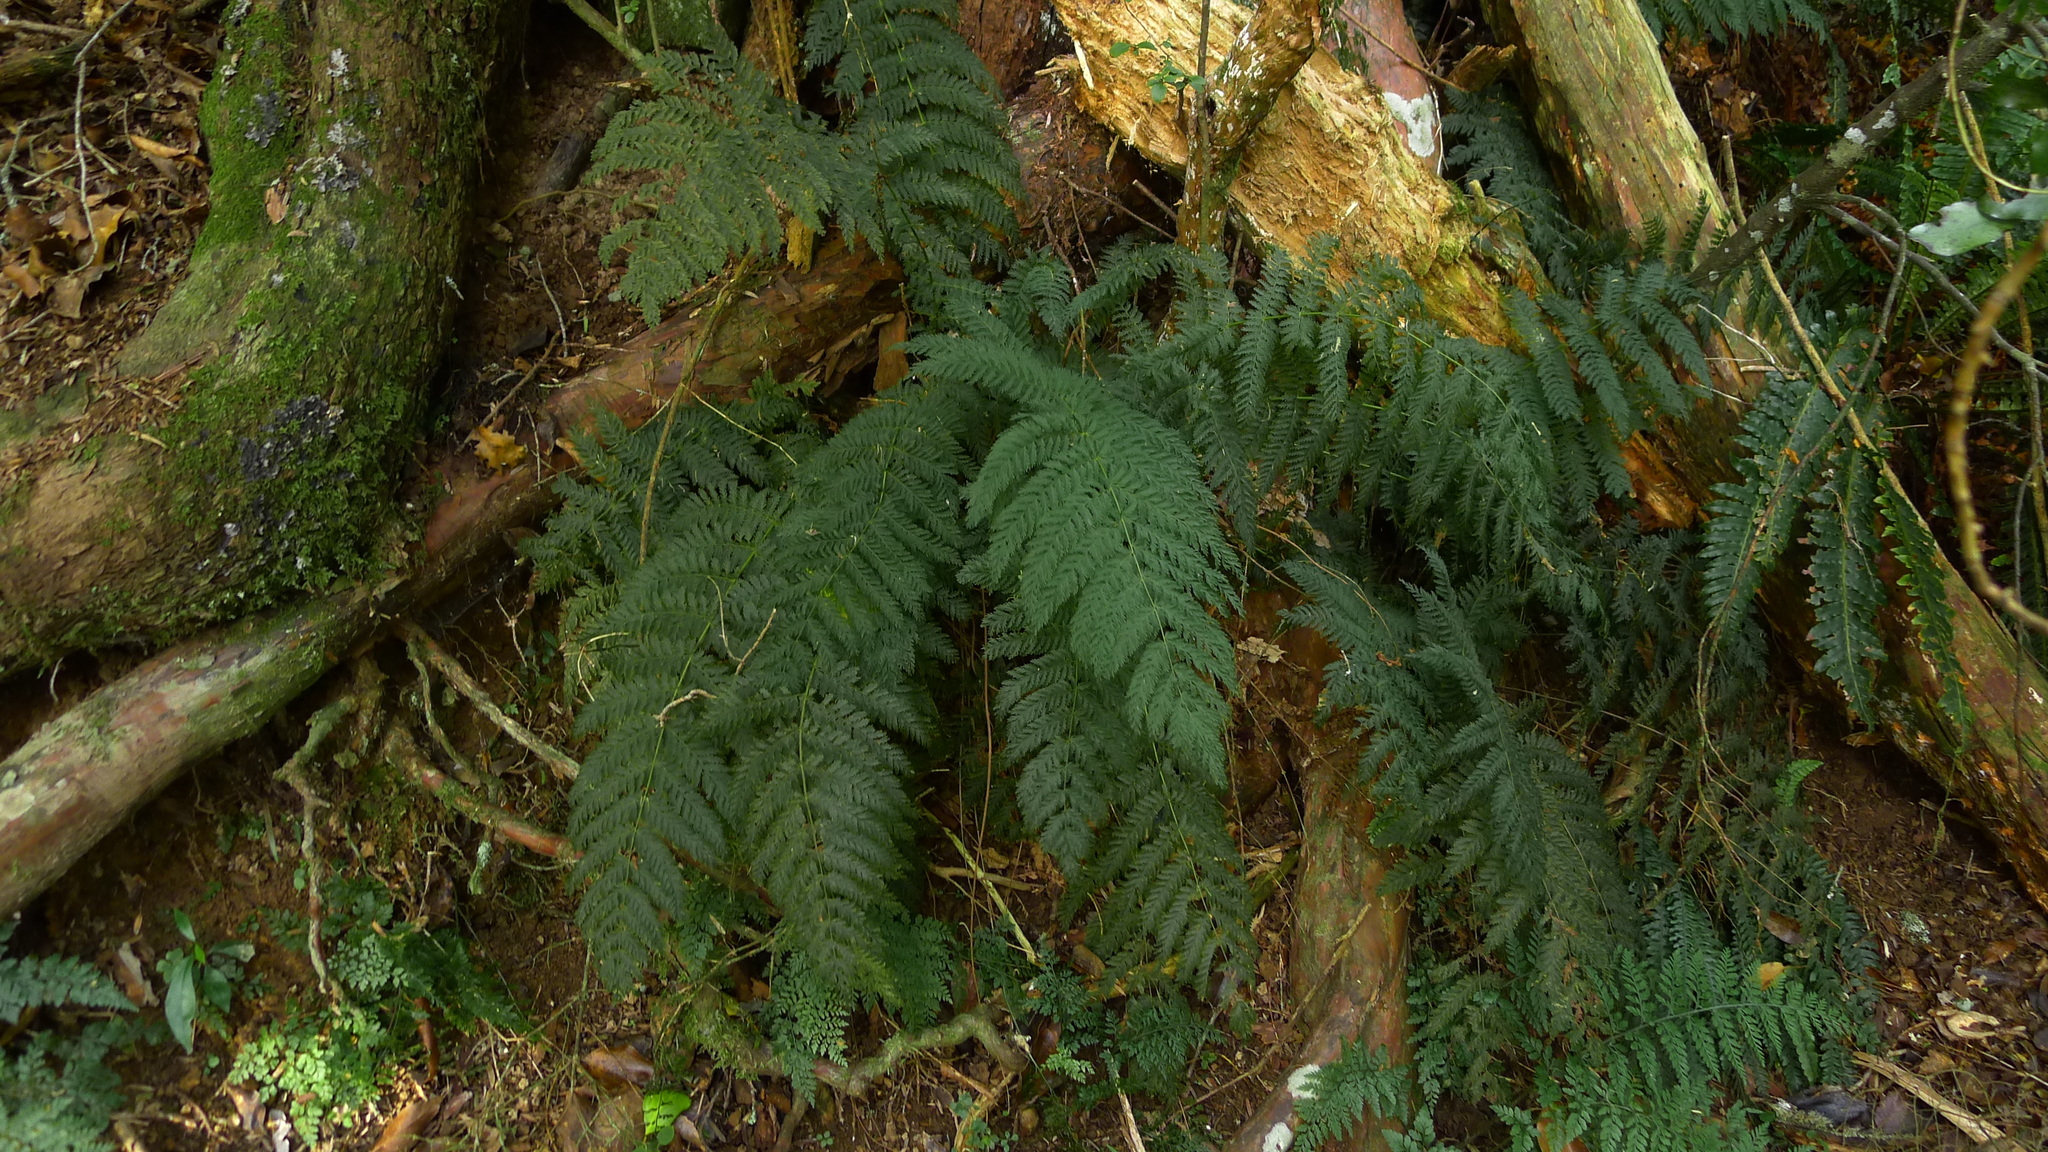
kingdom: Plantae
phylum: Tracheophyta
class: Polypodiopsida
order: Osmundales
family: Osmundaceae
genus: Leptopteris
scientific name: Leptopteris hymenophylloides
